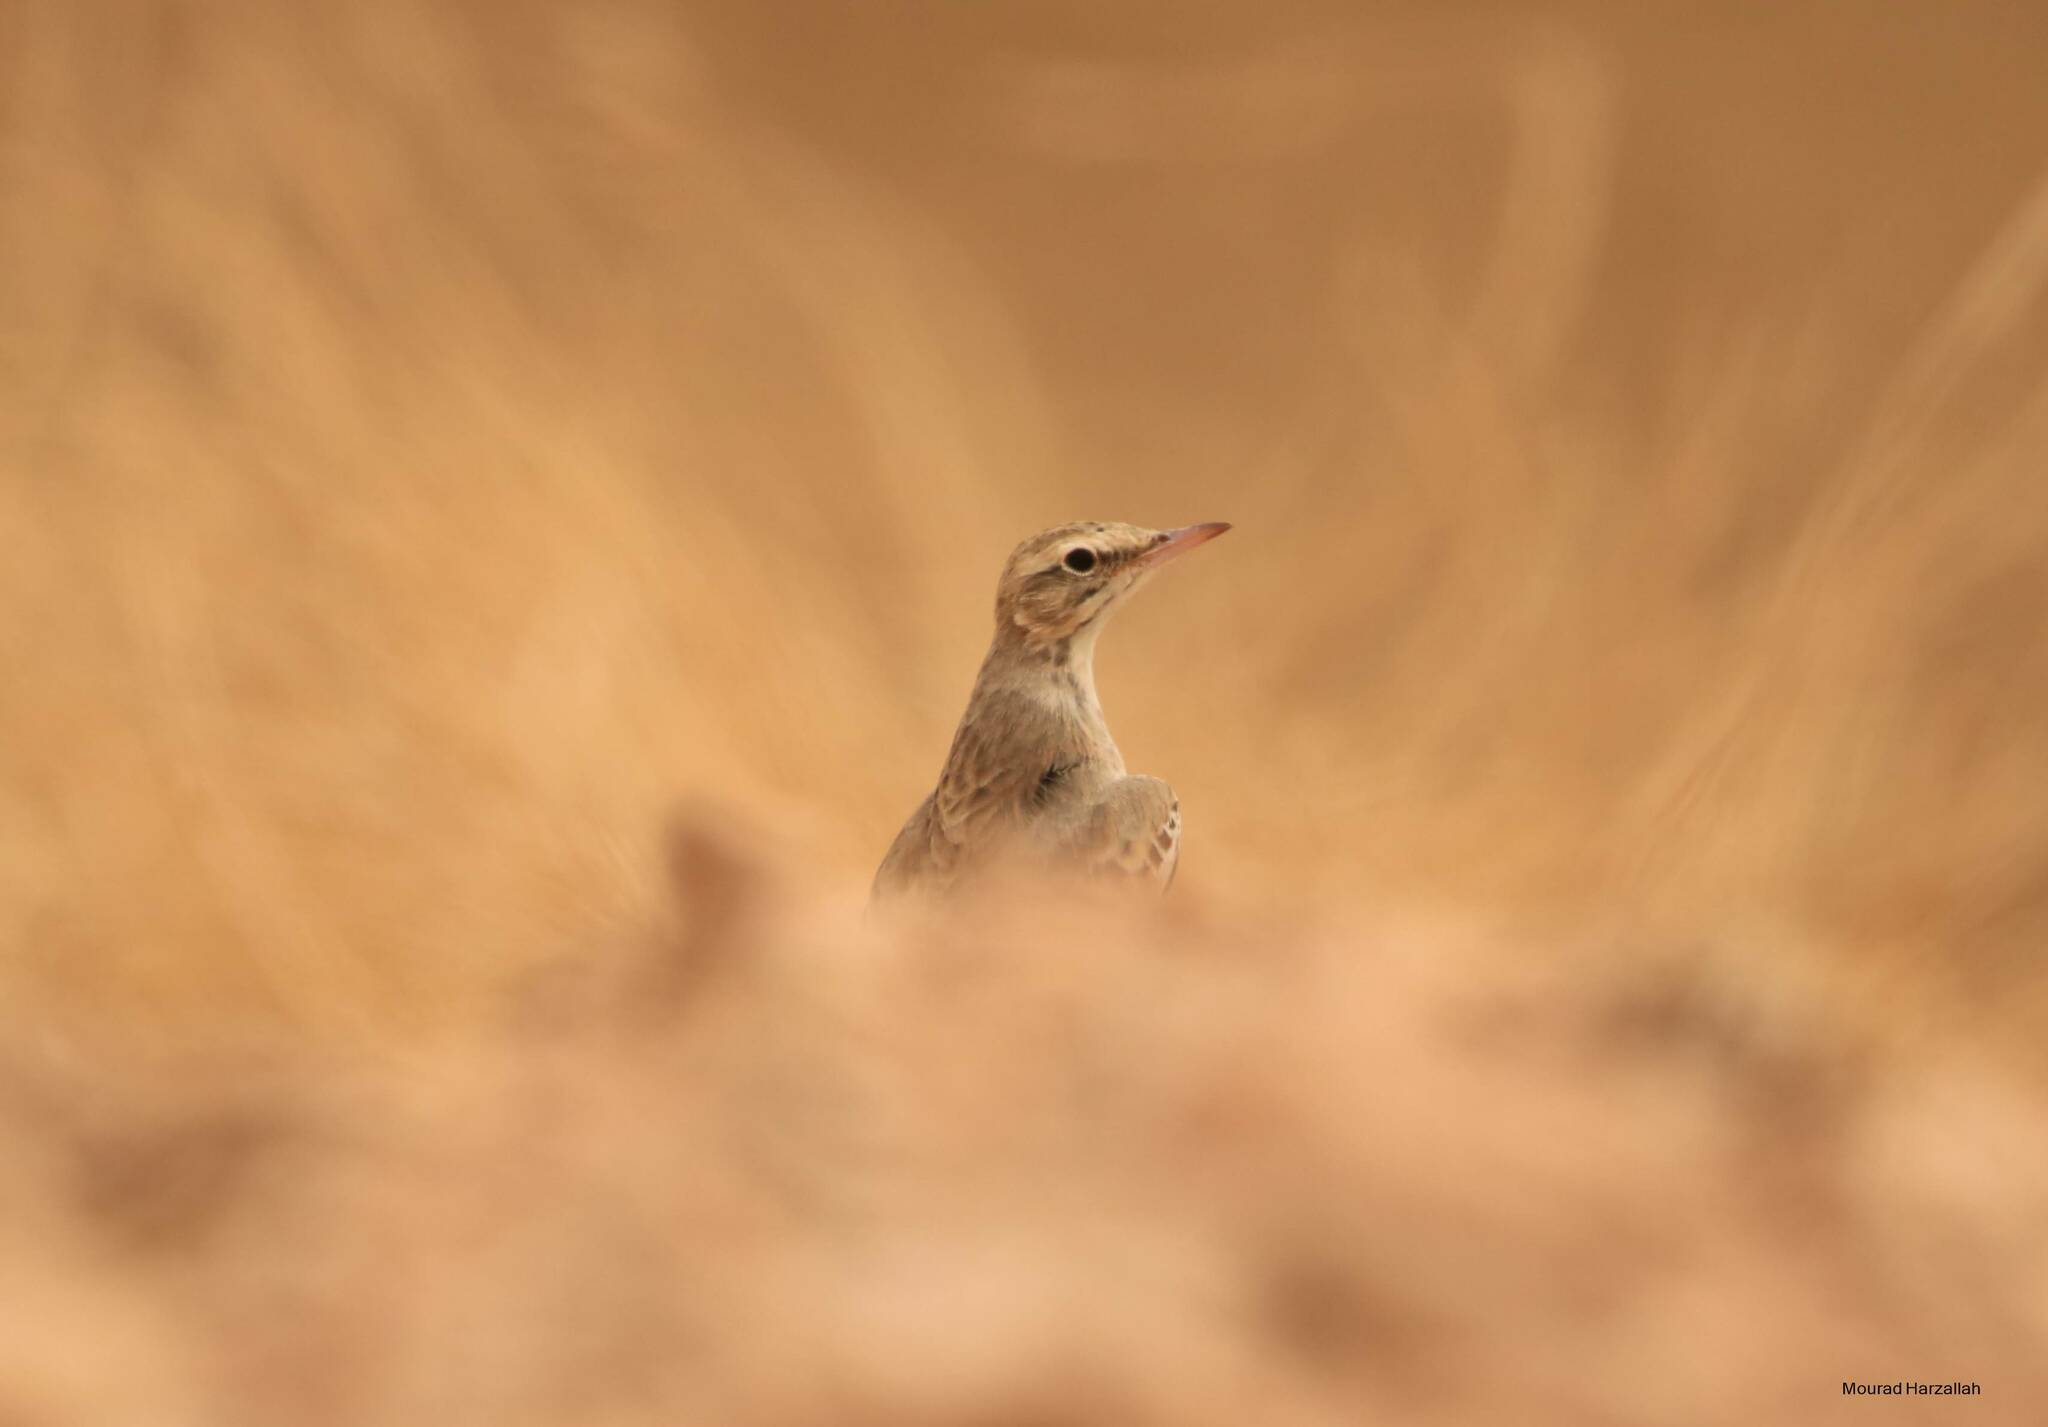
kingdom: Animalia
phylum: Chordata
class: Aves
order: Passeriformes
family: Motacillidae
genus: Anthus
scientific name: Anthus campestris
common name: Tawny pipit
